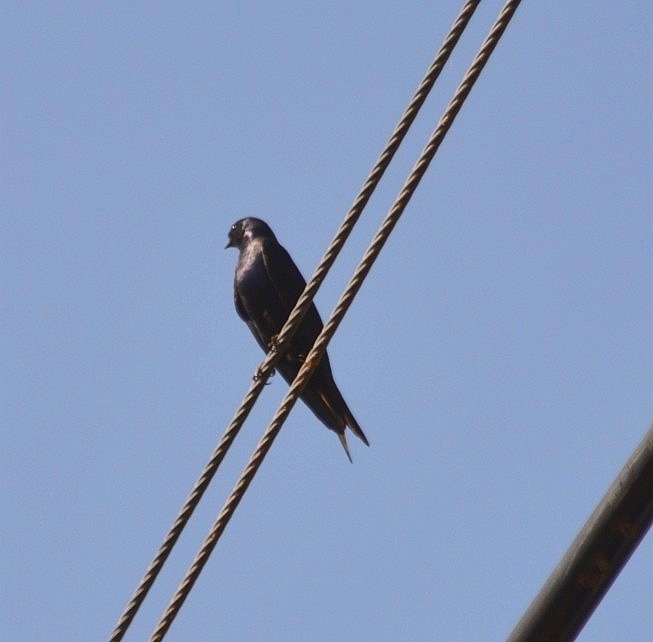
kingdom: Animalia
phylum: Chordata
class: Aves
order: Passeriformes
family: Hirundinidae
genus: Progne
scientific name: Progne elegans
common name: Southern martin
